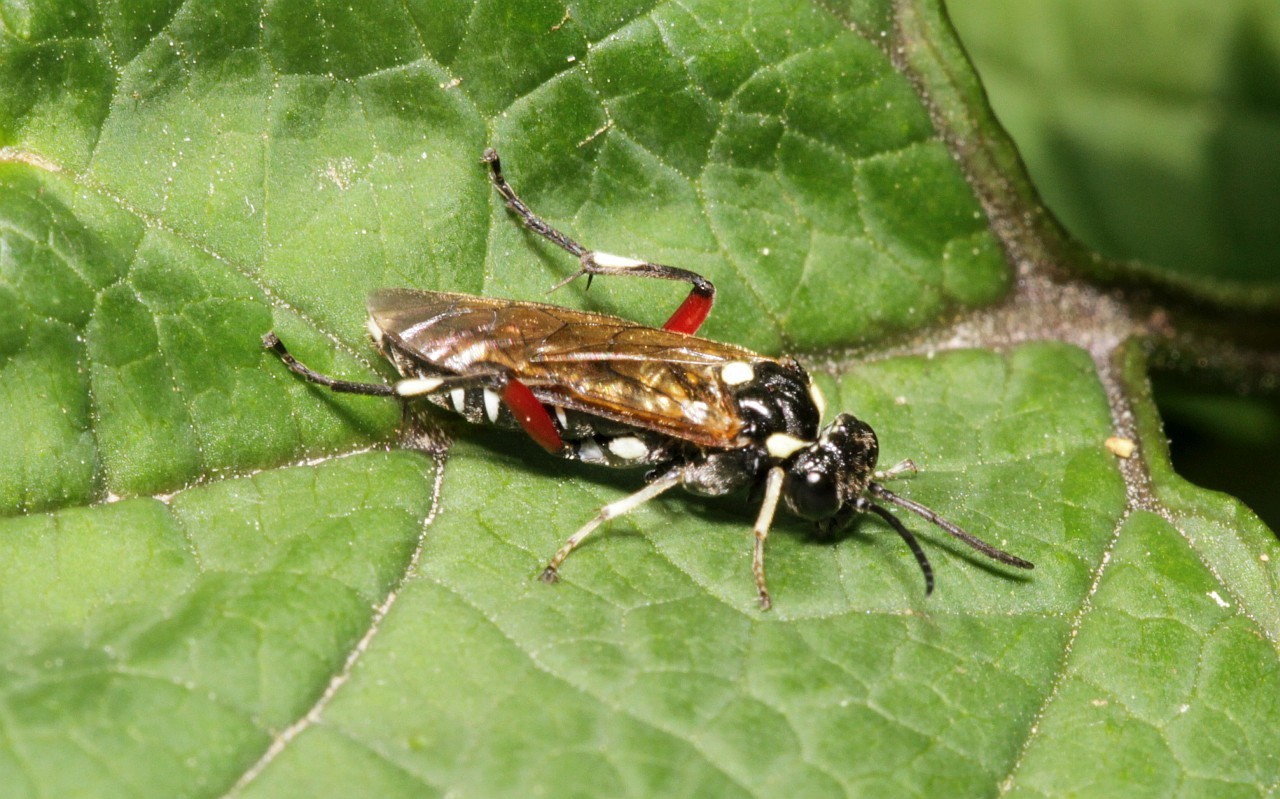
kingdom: Animalia
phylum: Arthropoda
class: Insecta
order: Hymenoptera
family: Tenthredinidae
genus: Macrophya
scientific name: Macrophya punctumalbum
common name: Sawfly
